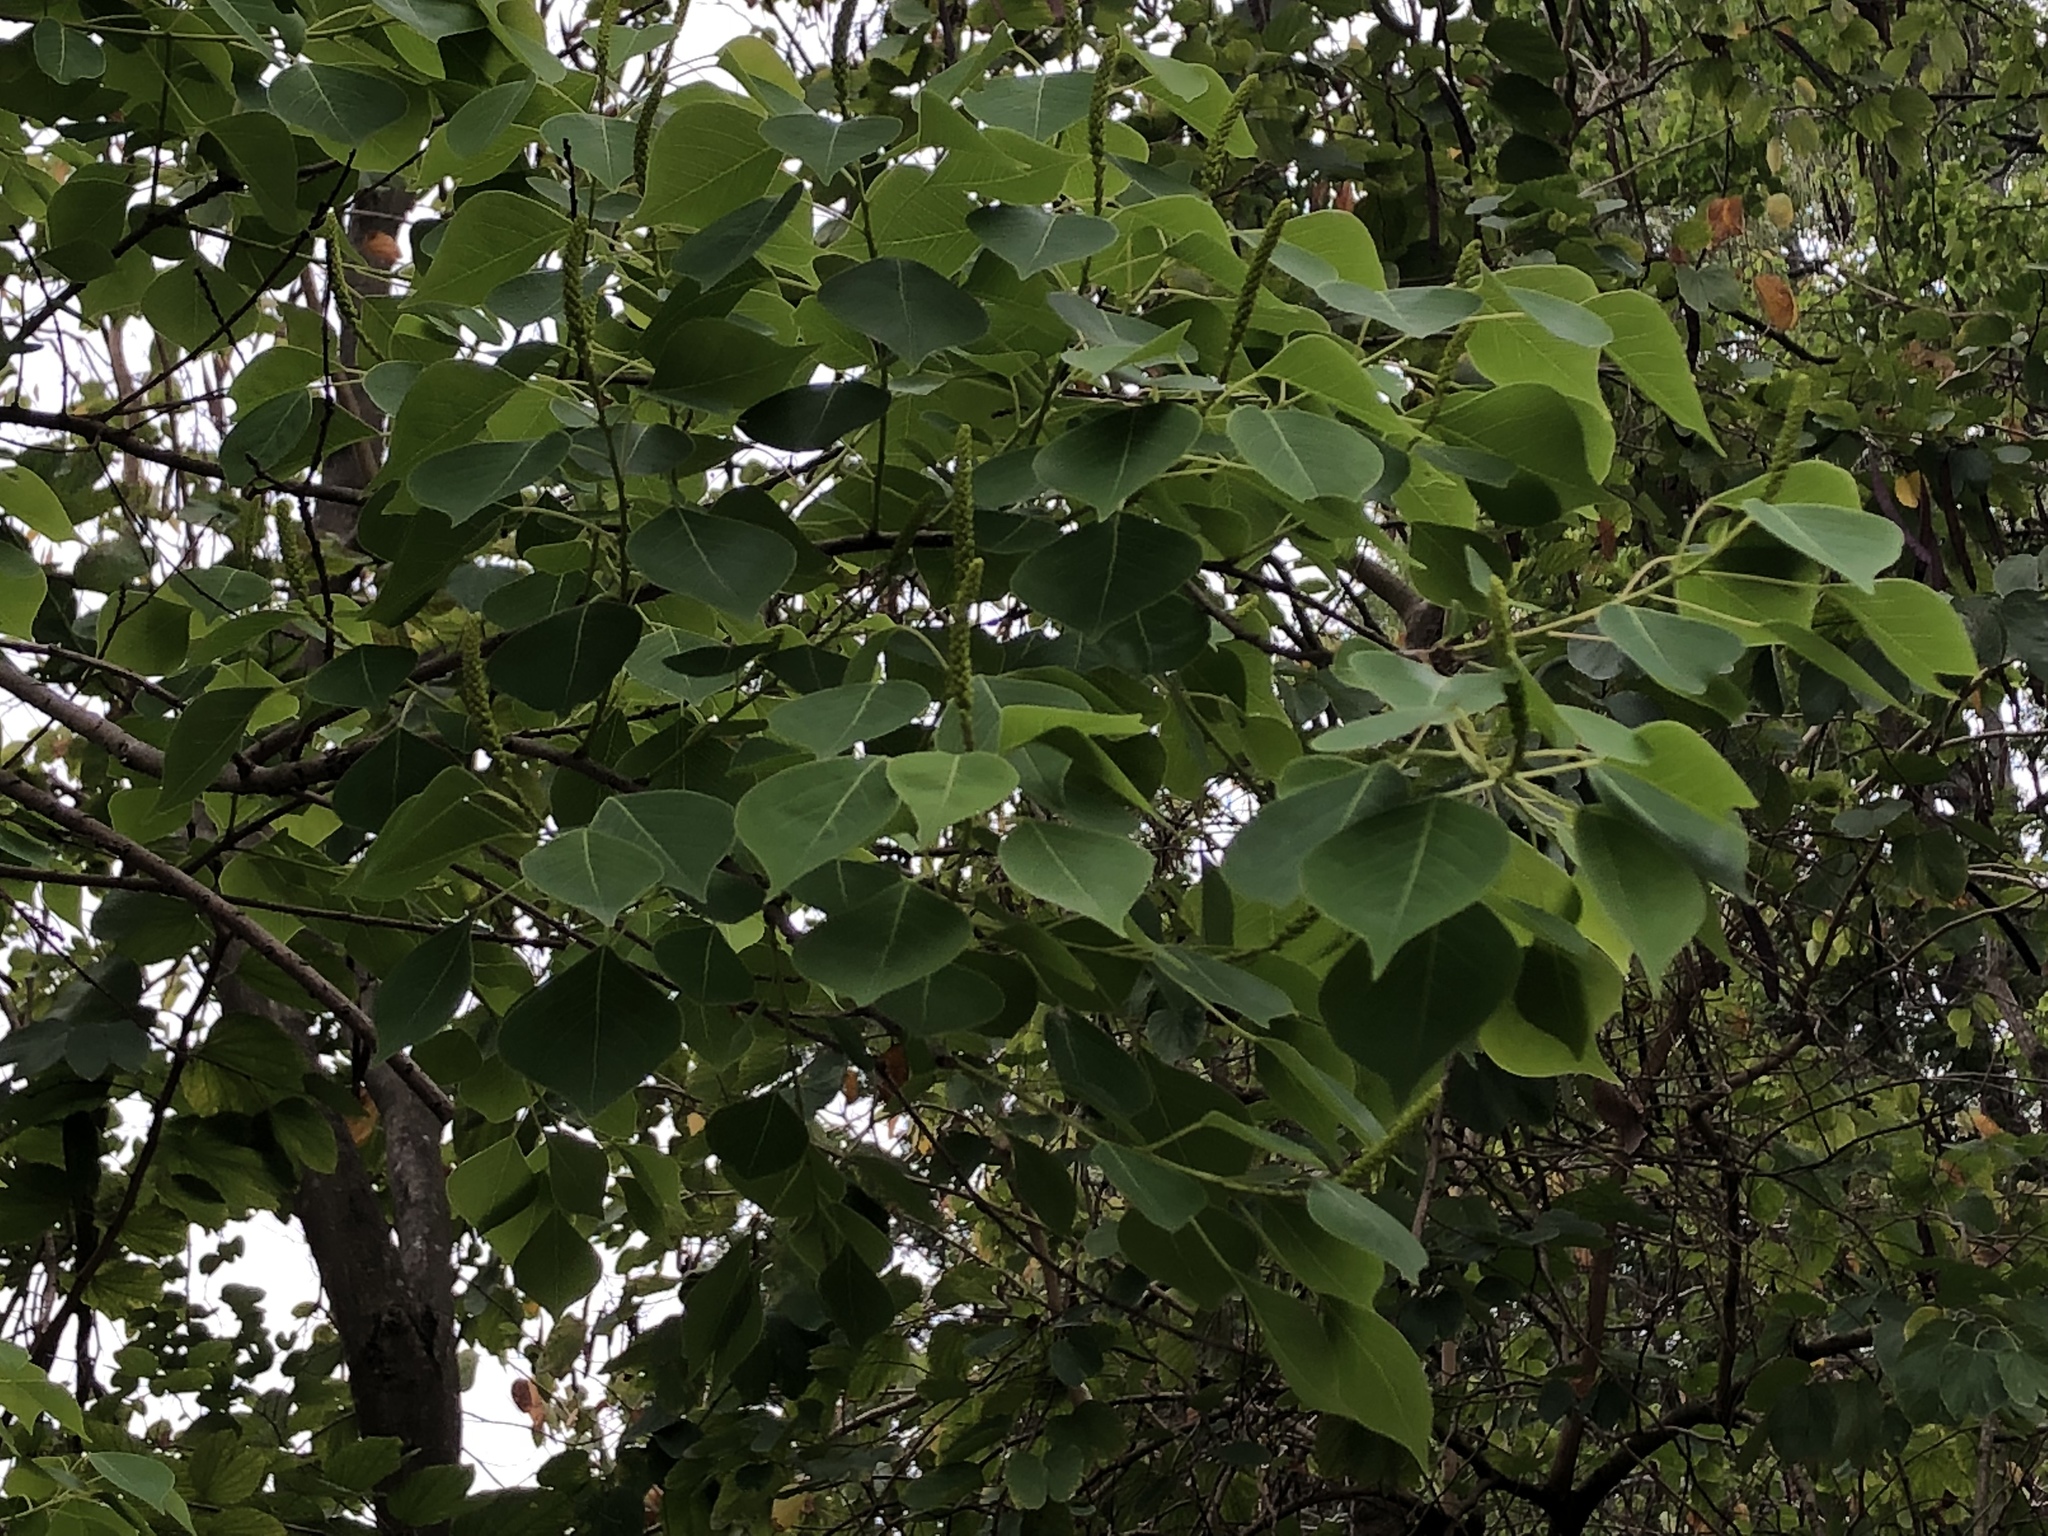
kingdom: Plantae
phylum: Tracheophyta
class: Magnoliopsida
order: Malpighiales
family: Euphorbiaceae
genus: Triadica
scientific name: Triadica sebifera
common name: Chinese tallow
